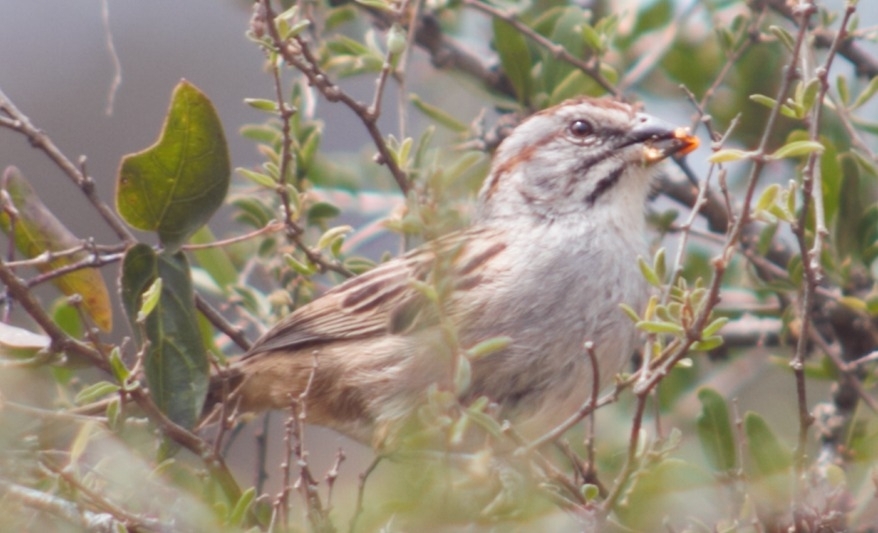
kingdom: Animalia
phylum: Chordata
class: Aves
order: Passeriformes
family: Passerellidae
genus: Rhynchospiza
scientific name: Rhynchospiza strigiceps
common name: Stripe-capped sparrow
